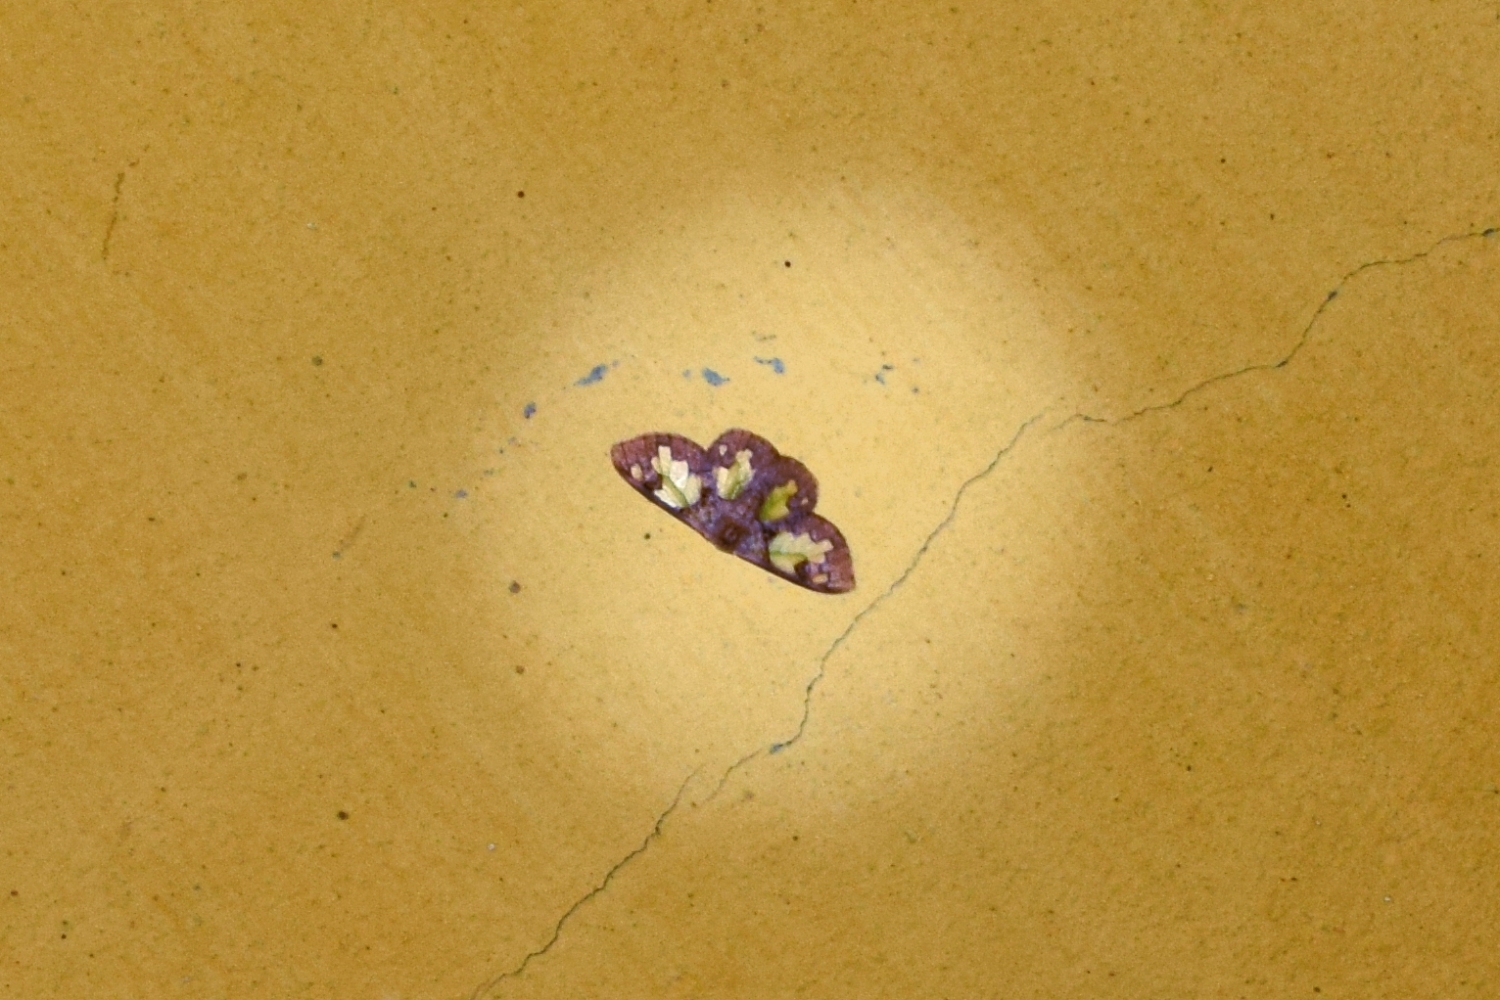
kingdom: Animalia
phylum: Arthropoda
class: Insecta
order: Lepidoptera
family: Erebidae
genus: Carriola
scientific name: Carriola ecnomoda
